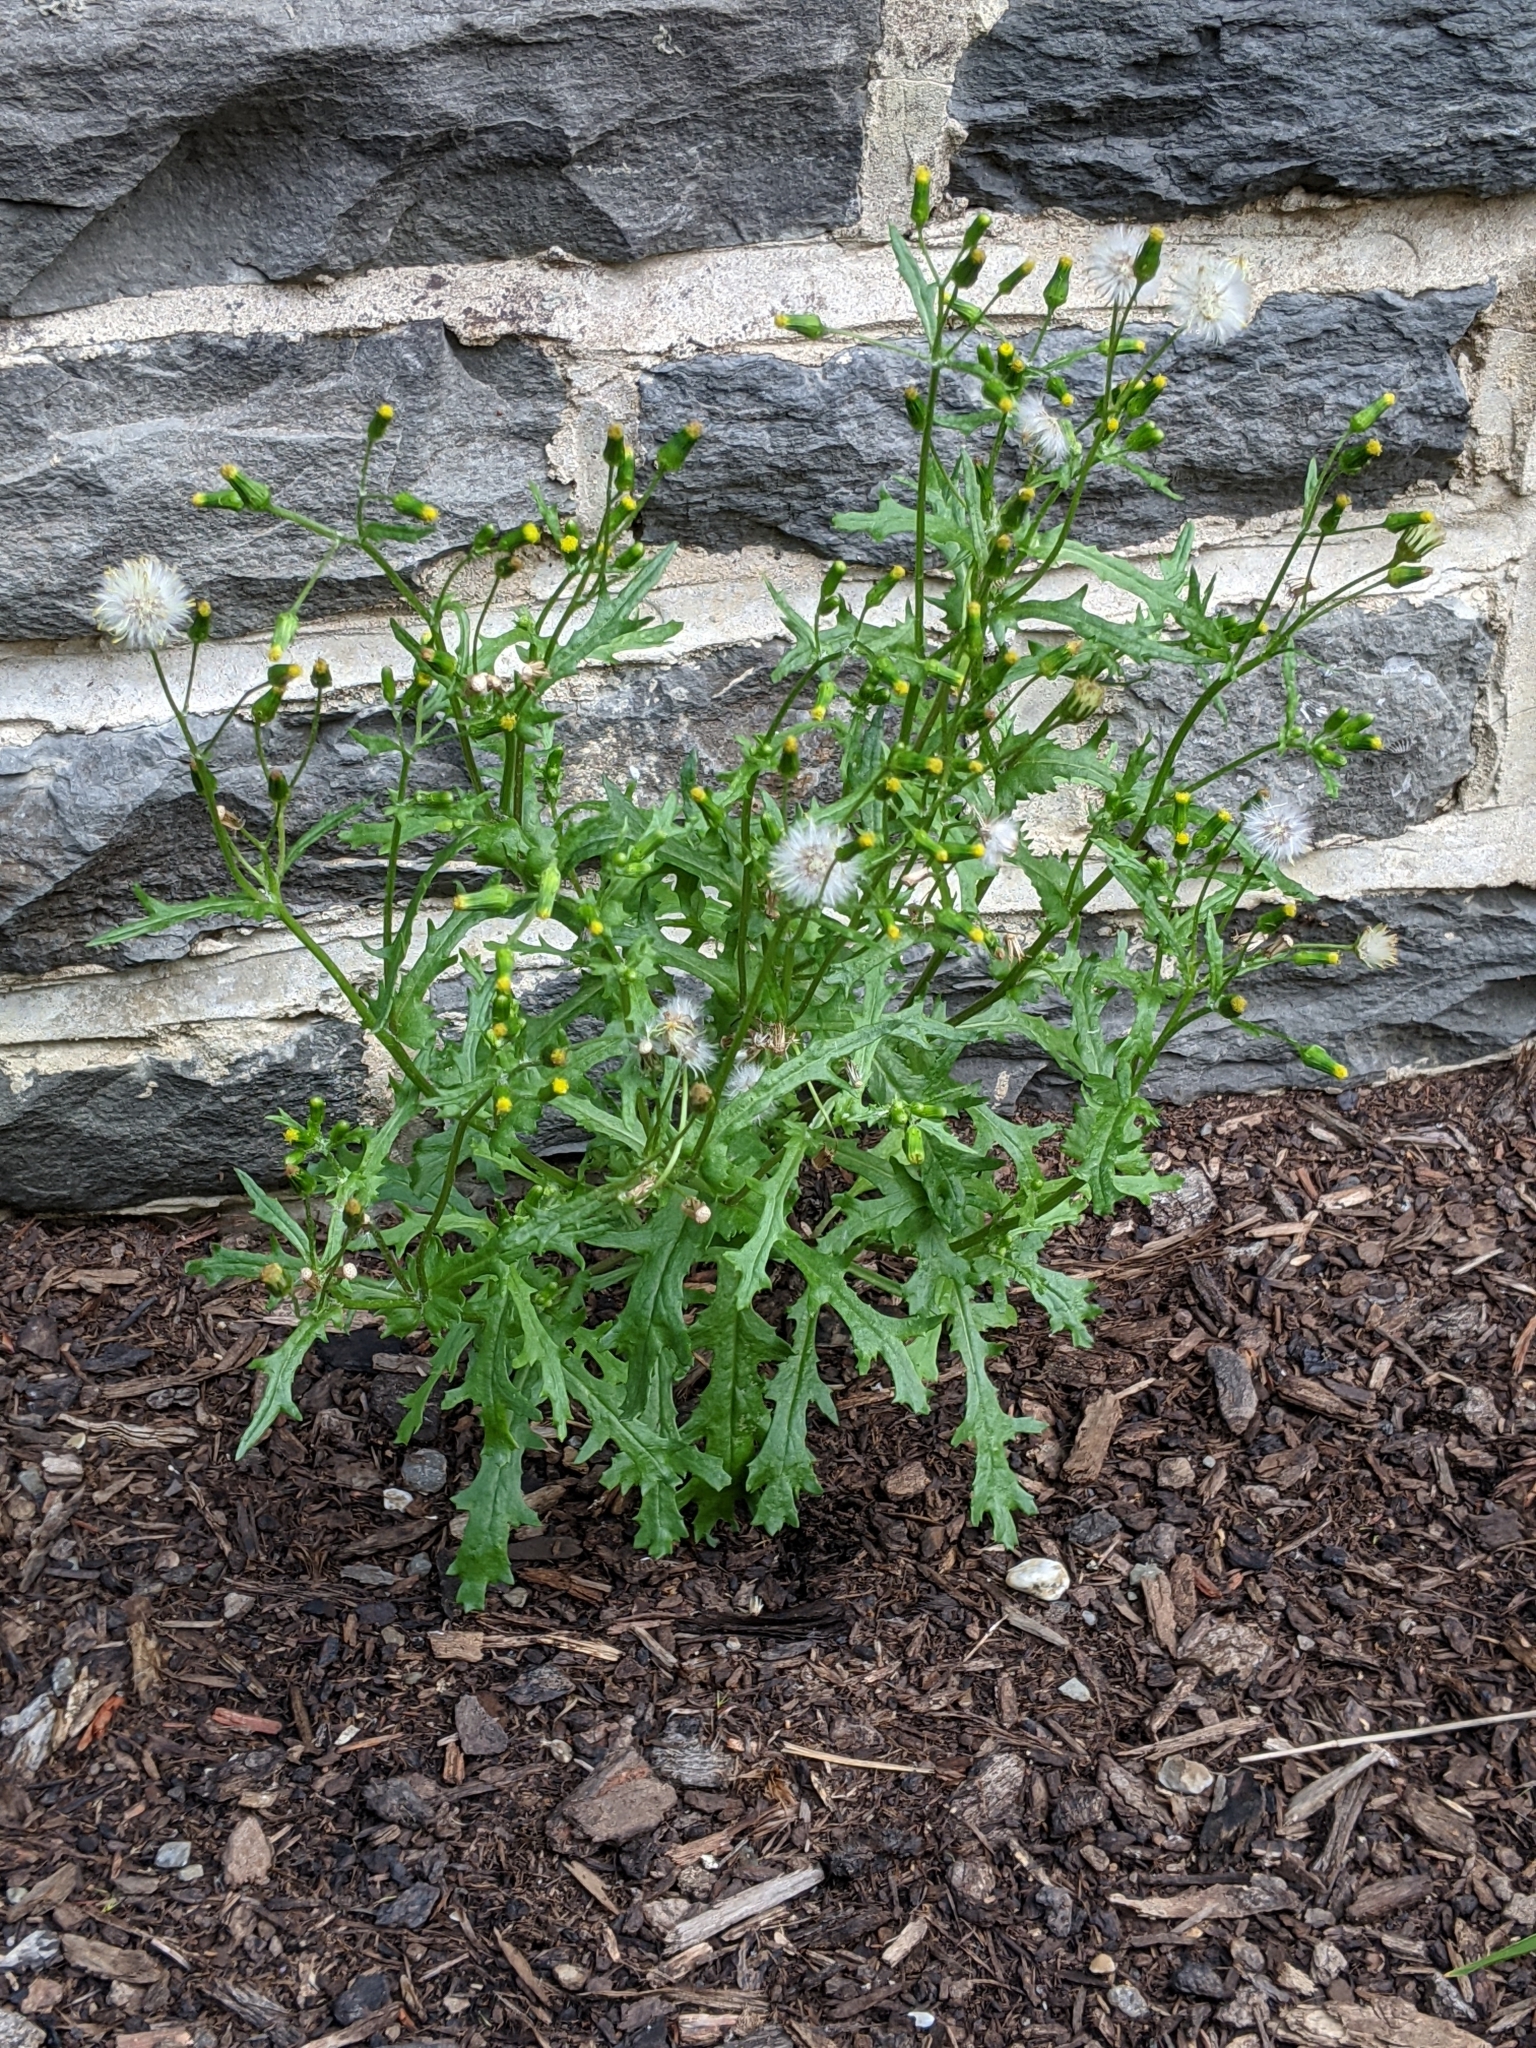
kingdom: Plantae
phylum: Tracheophyta
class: Magnoliopsida
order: Asterales
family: Asteraceae
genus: Senecio
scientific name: Senecio vulgaris
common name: Old-man-in-the-spring
